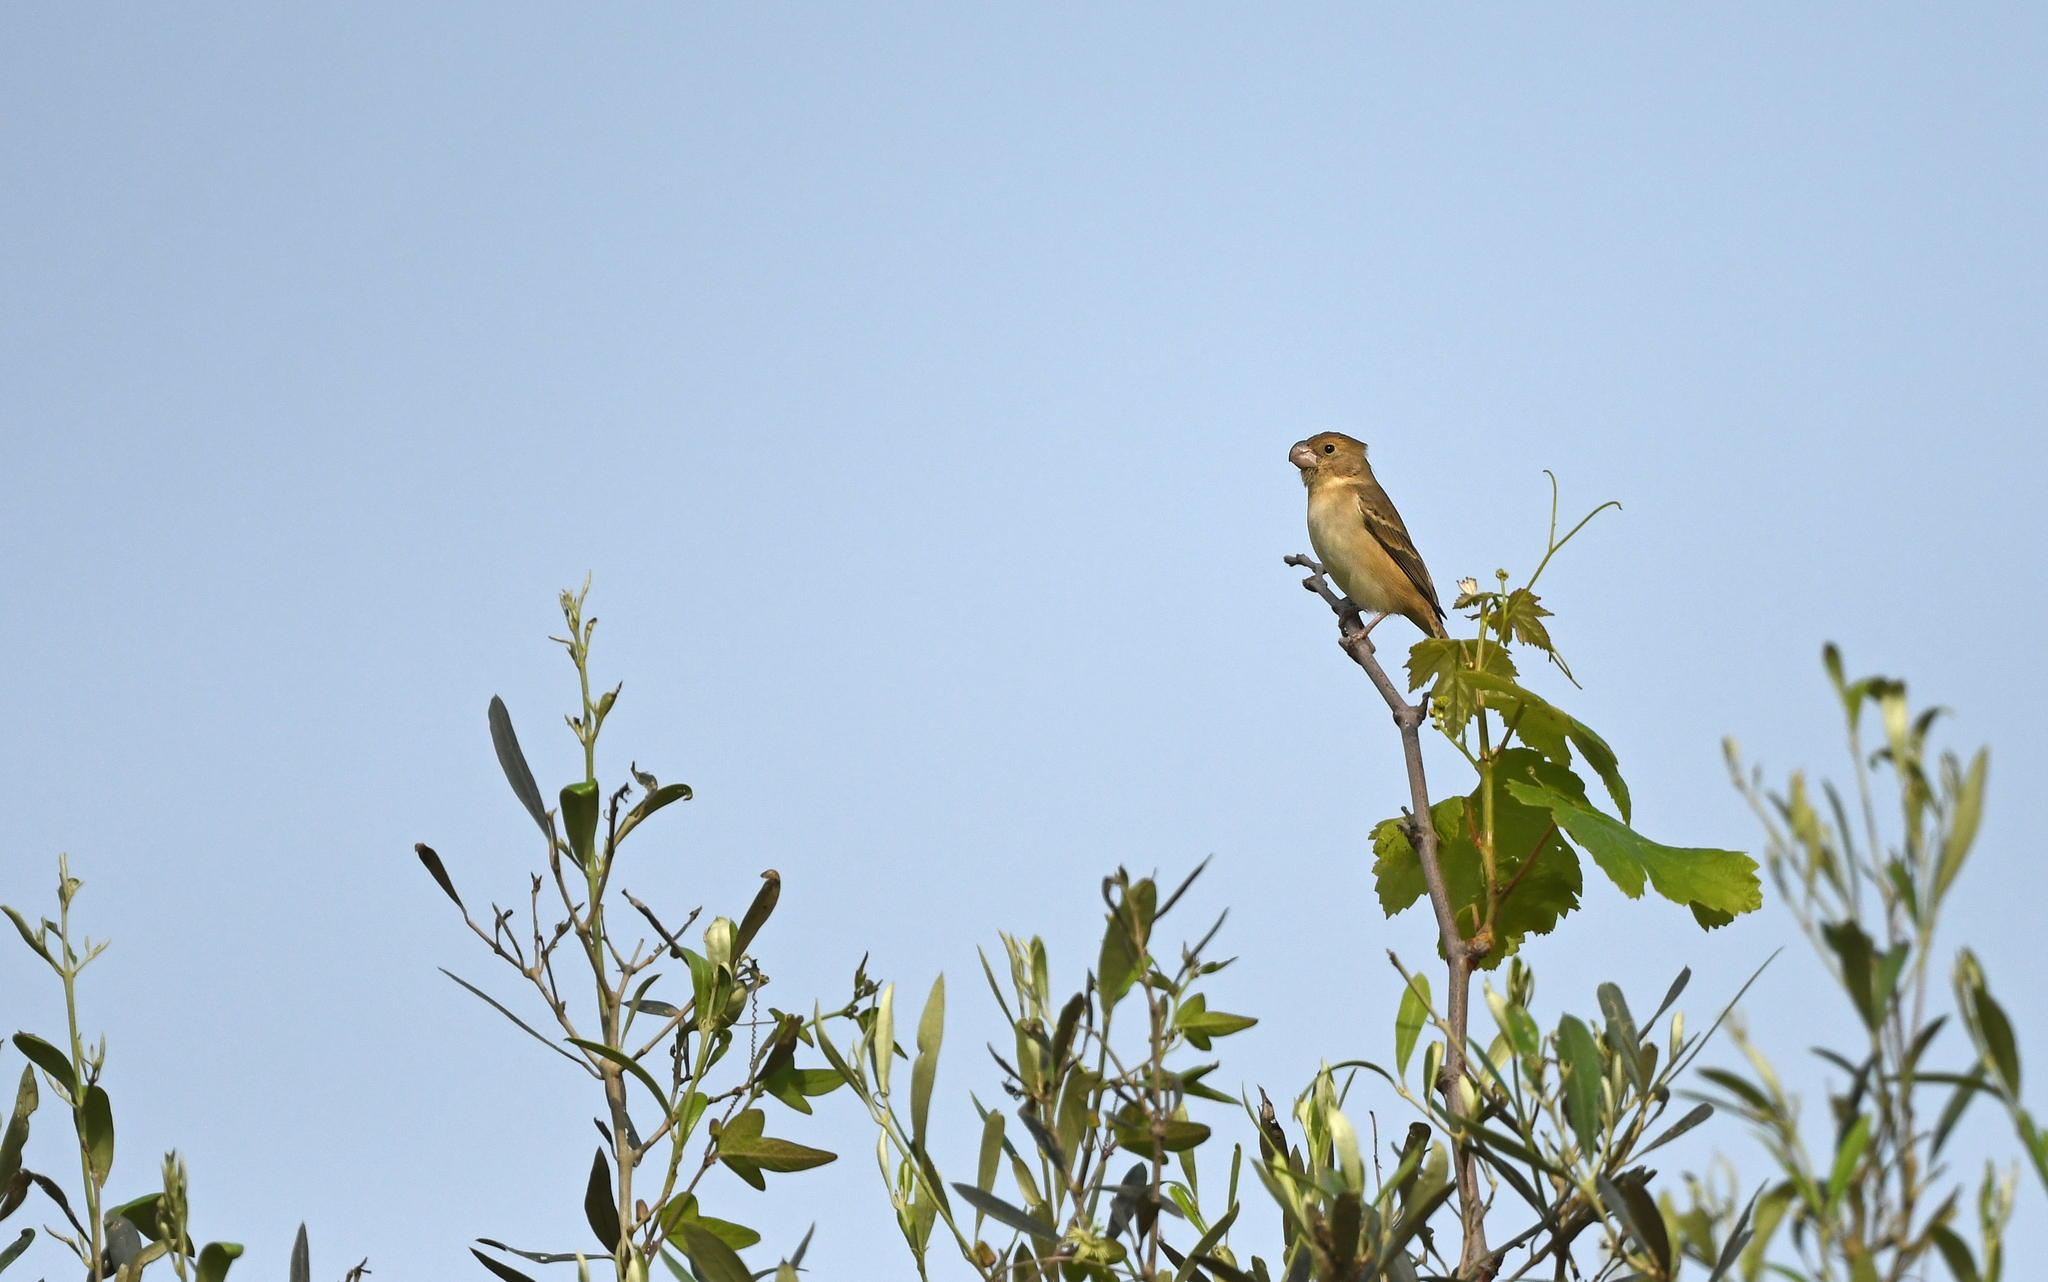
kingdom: Animalia
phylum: Chordata
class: Aves
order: Passeriformes
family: Thraupidae
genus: Sporophila
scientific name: Sporophila peruviana
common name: Parrot-billed seedeater
